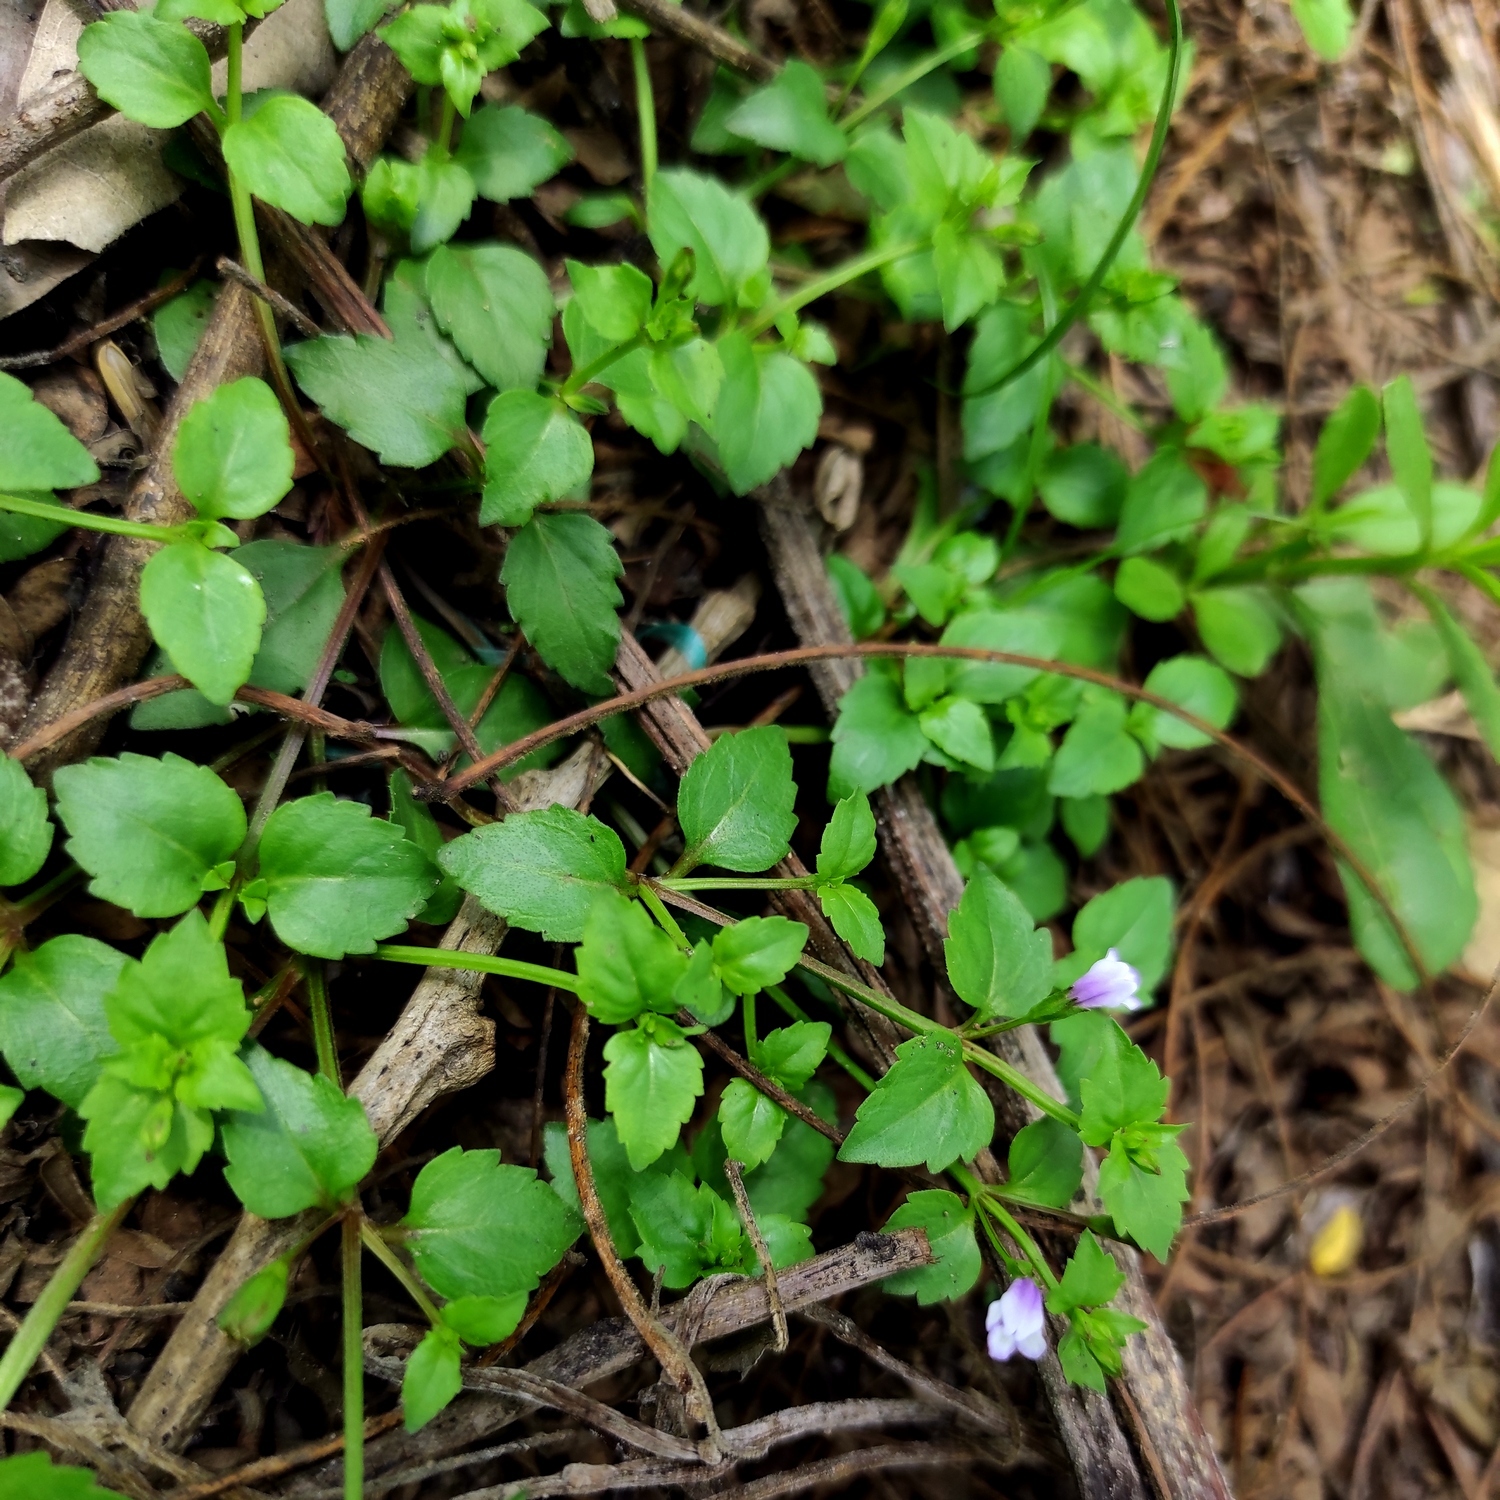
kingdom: Plantae
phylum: Tracheophyta
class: Magnoliopsida
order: Lamiales
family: Linderniaceae
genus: Torenia
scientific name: Torenia crustacea
